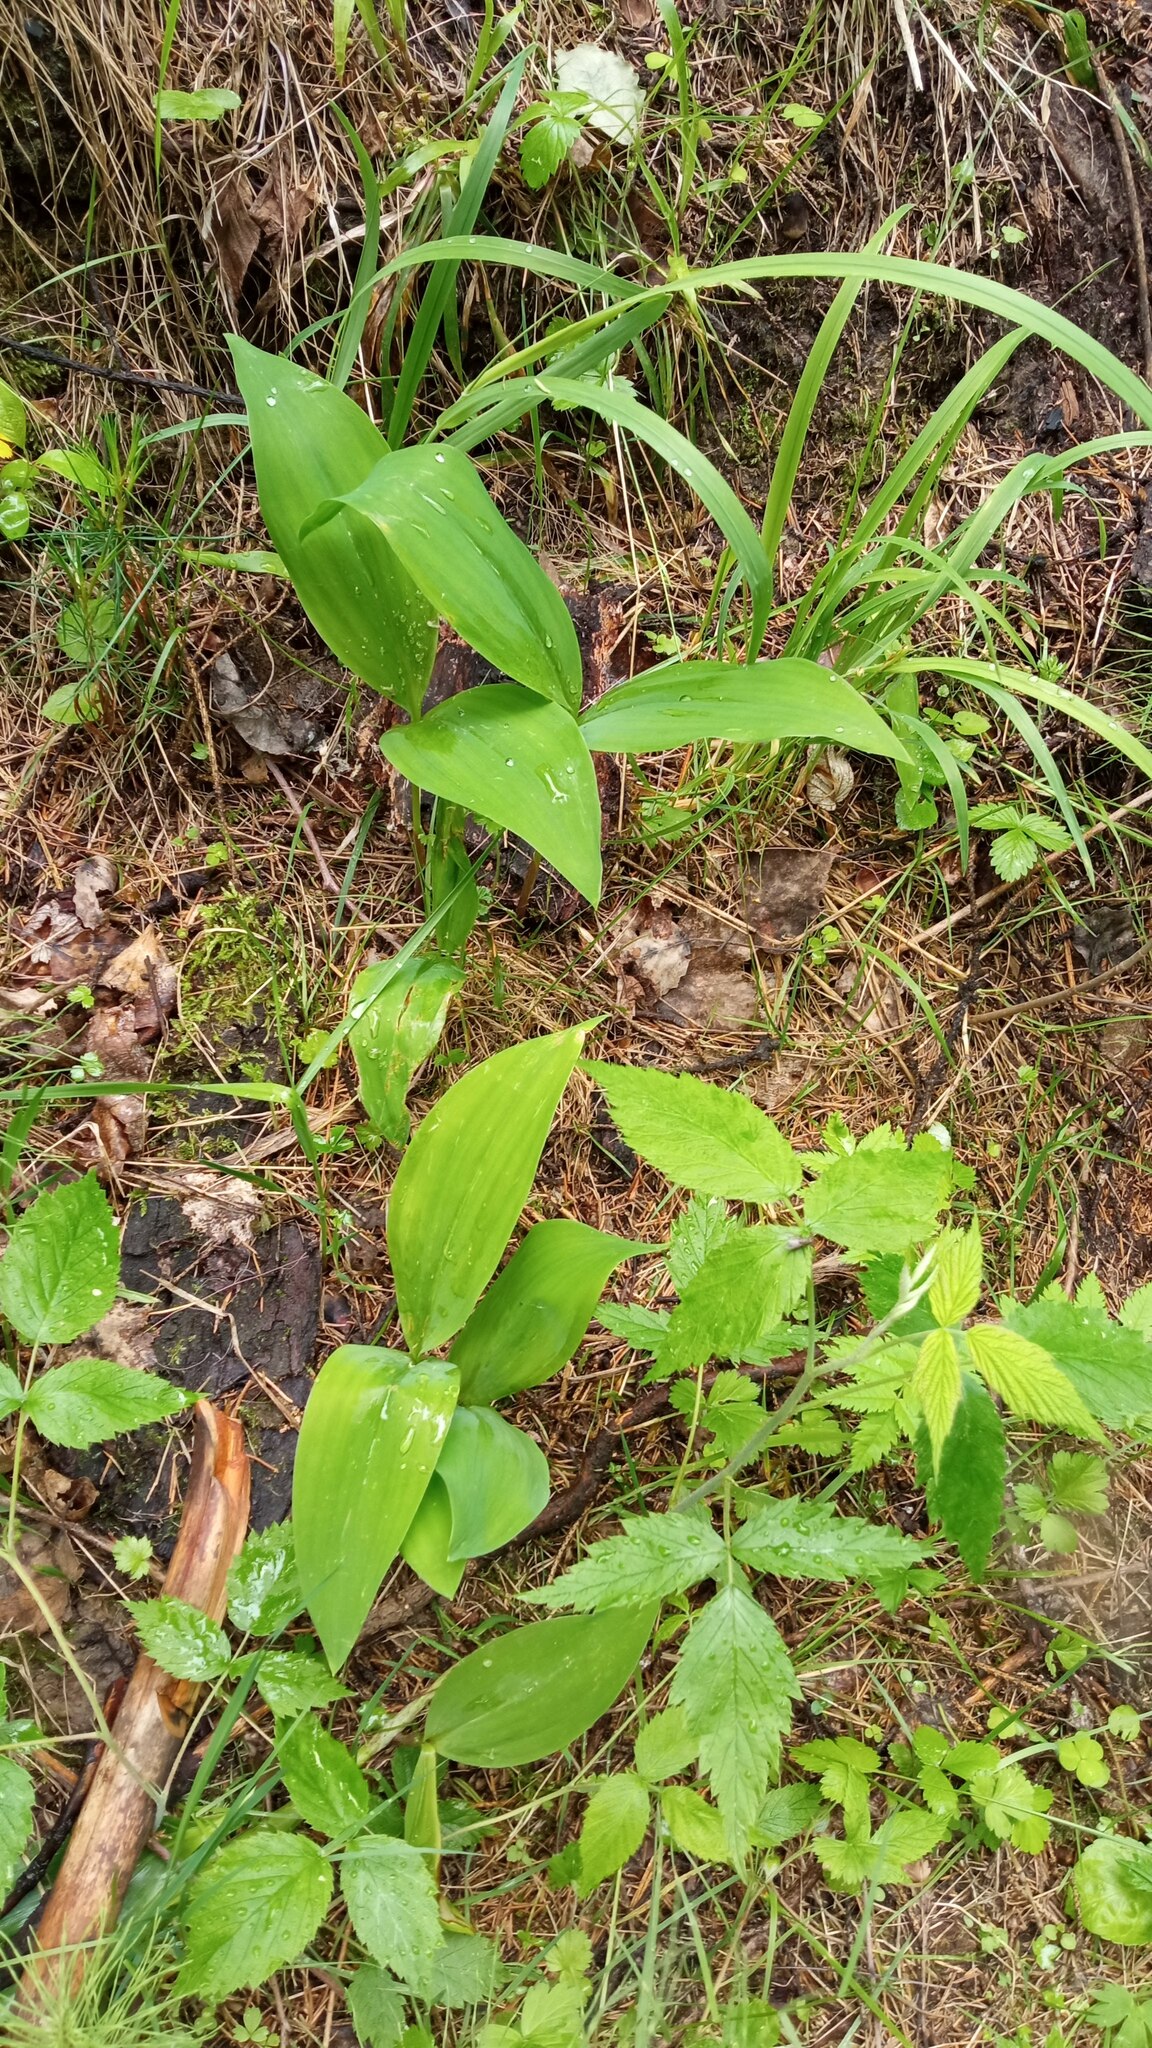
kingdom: Plantae
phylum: Tracheophyta
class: Liliopsida
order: Asparagales
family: Asparagaceae
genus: Convallaria
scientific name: Convallaria majalis
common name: Lily-of-the-valley
